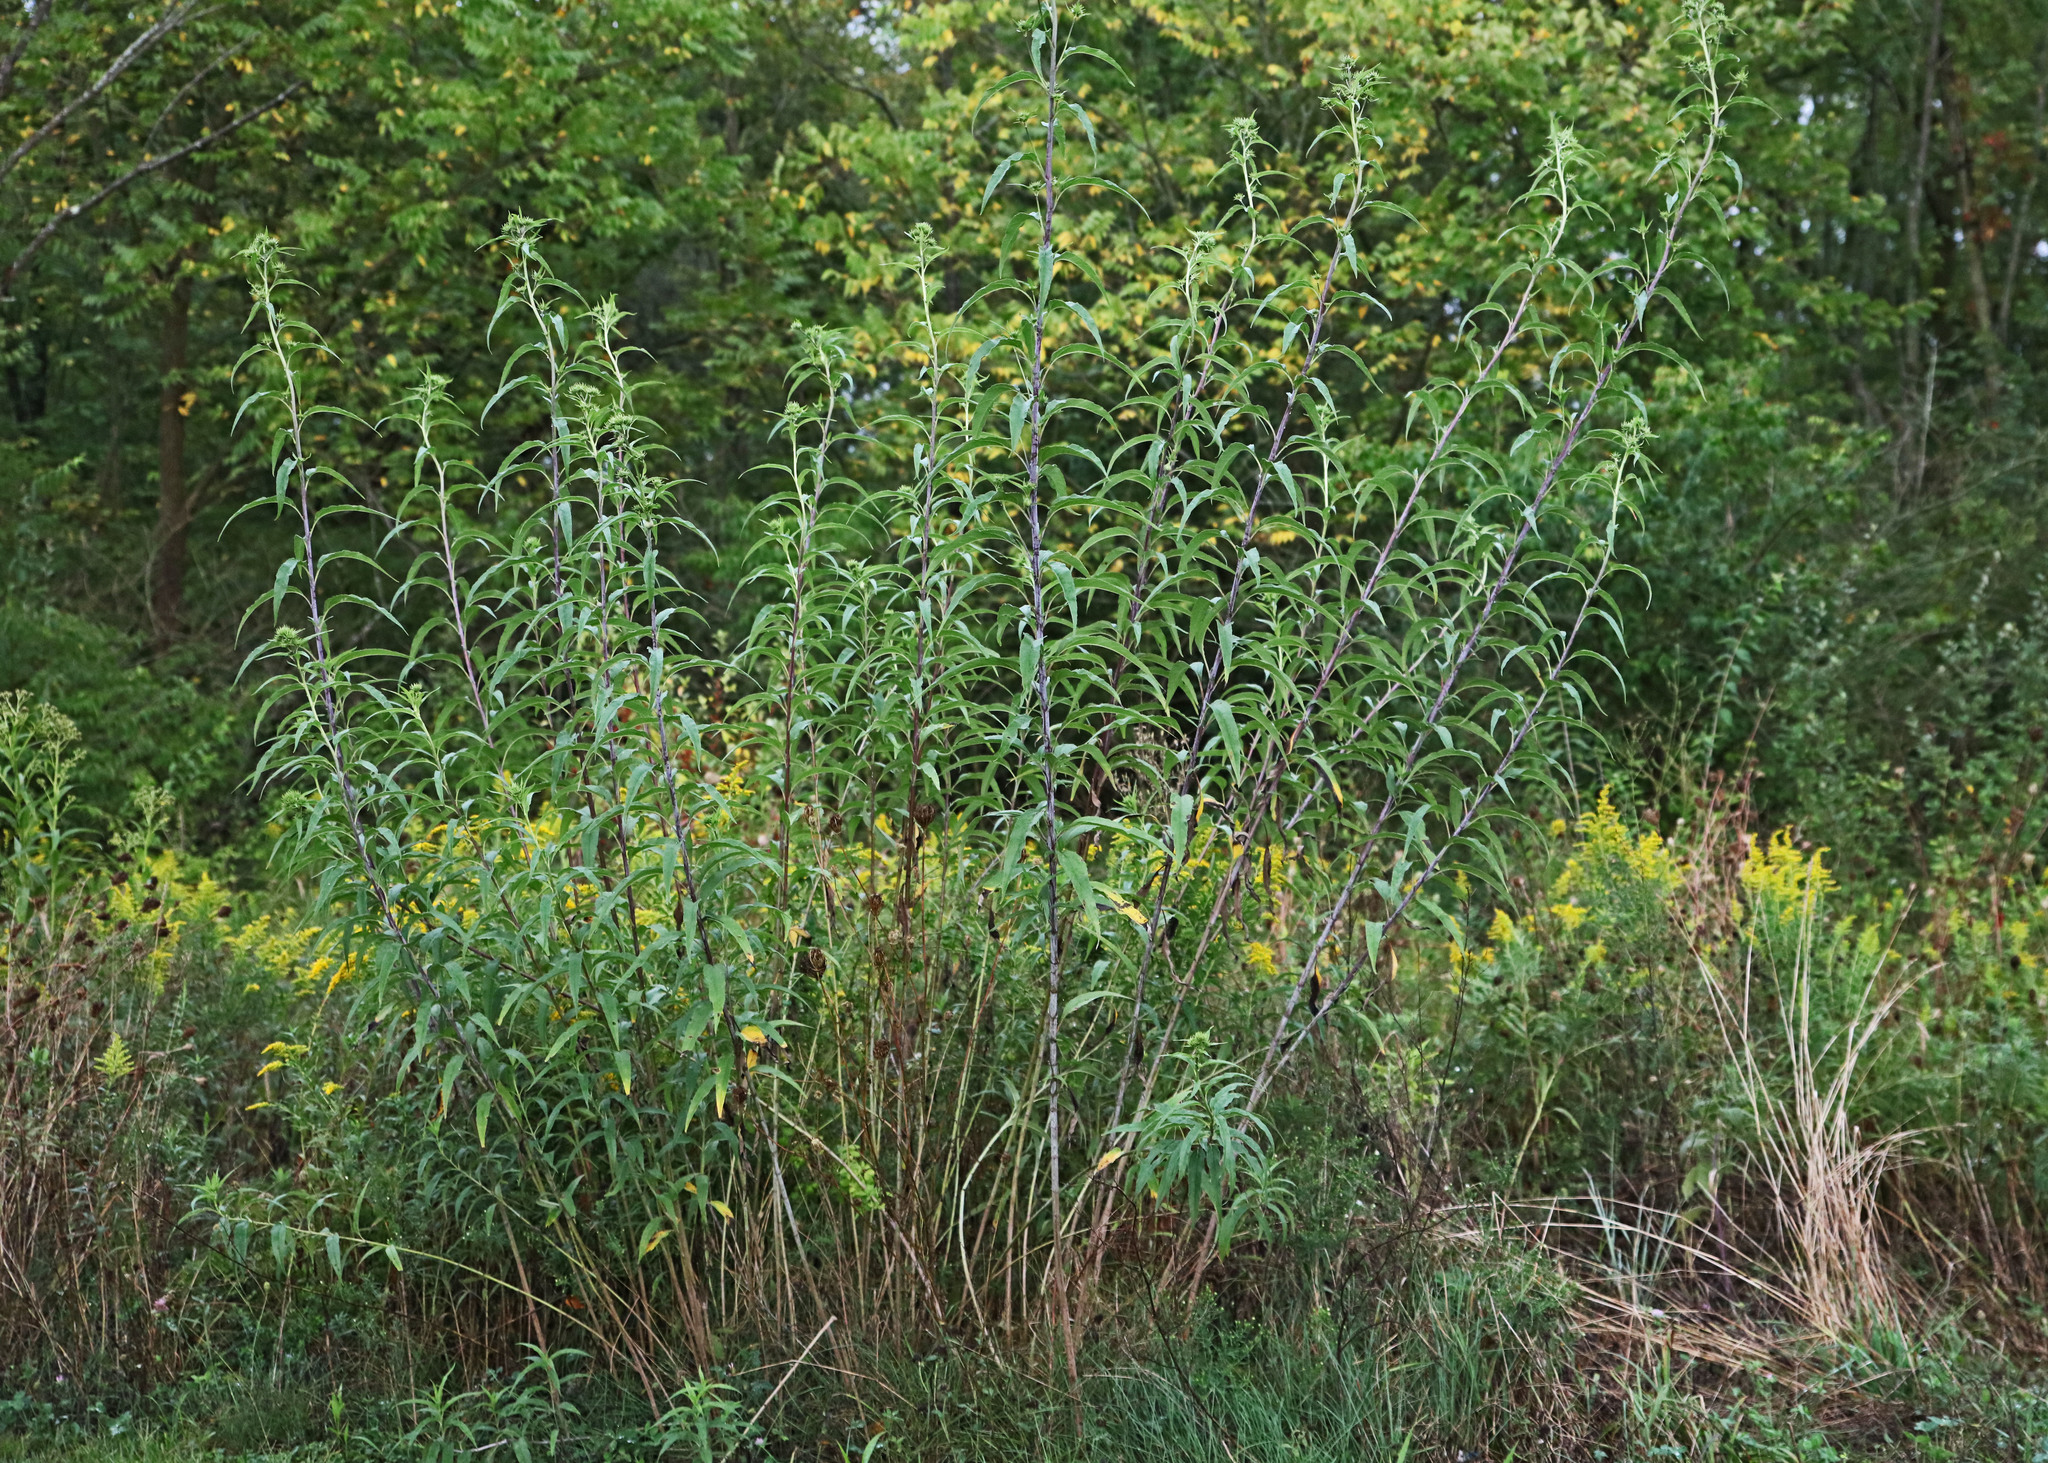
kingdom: Plantae
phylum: Tracheophyta
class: Magnoliopsida
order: Asterales
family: Asteraceae
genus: Helianthus
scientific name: Helianthus grosseserratus
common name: Sawtooth sunflower
